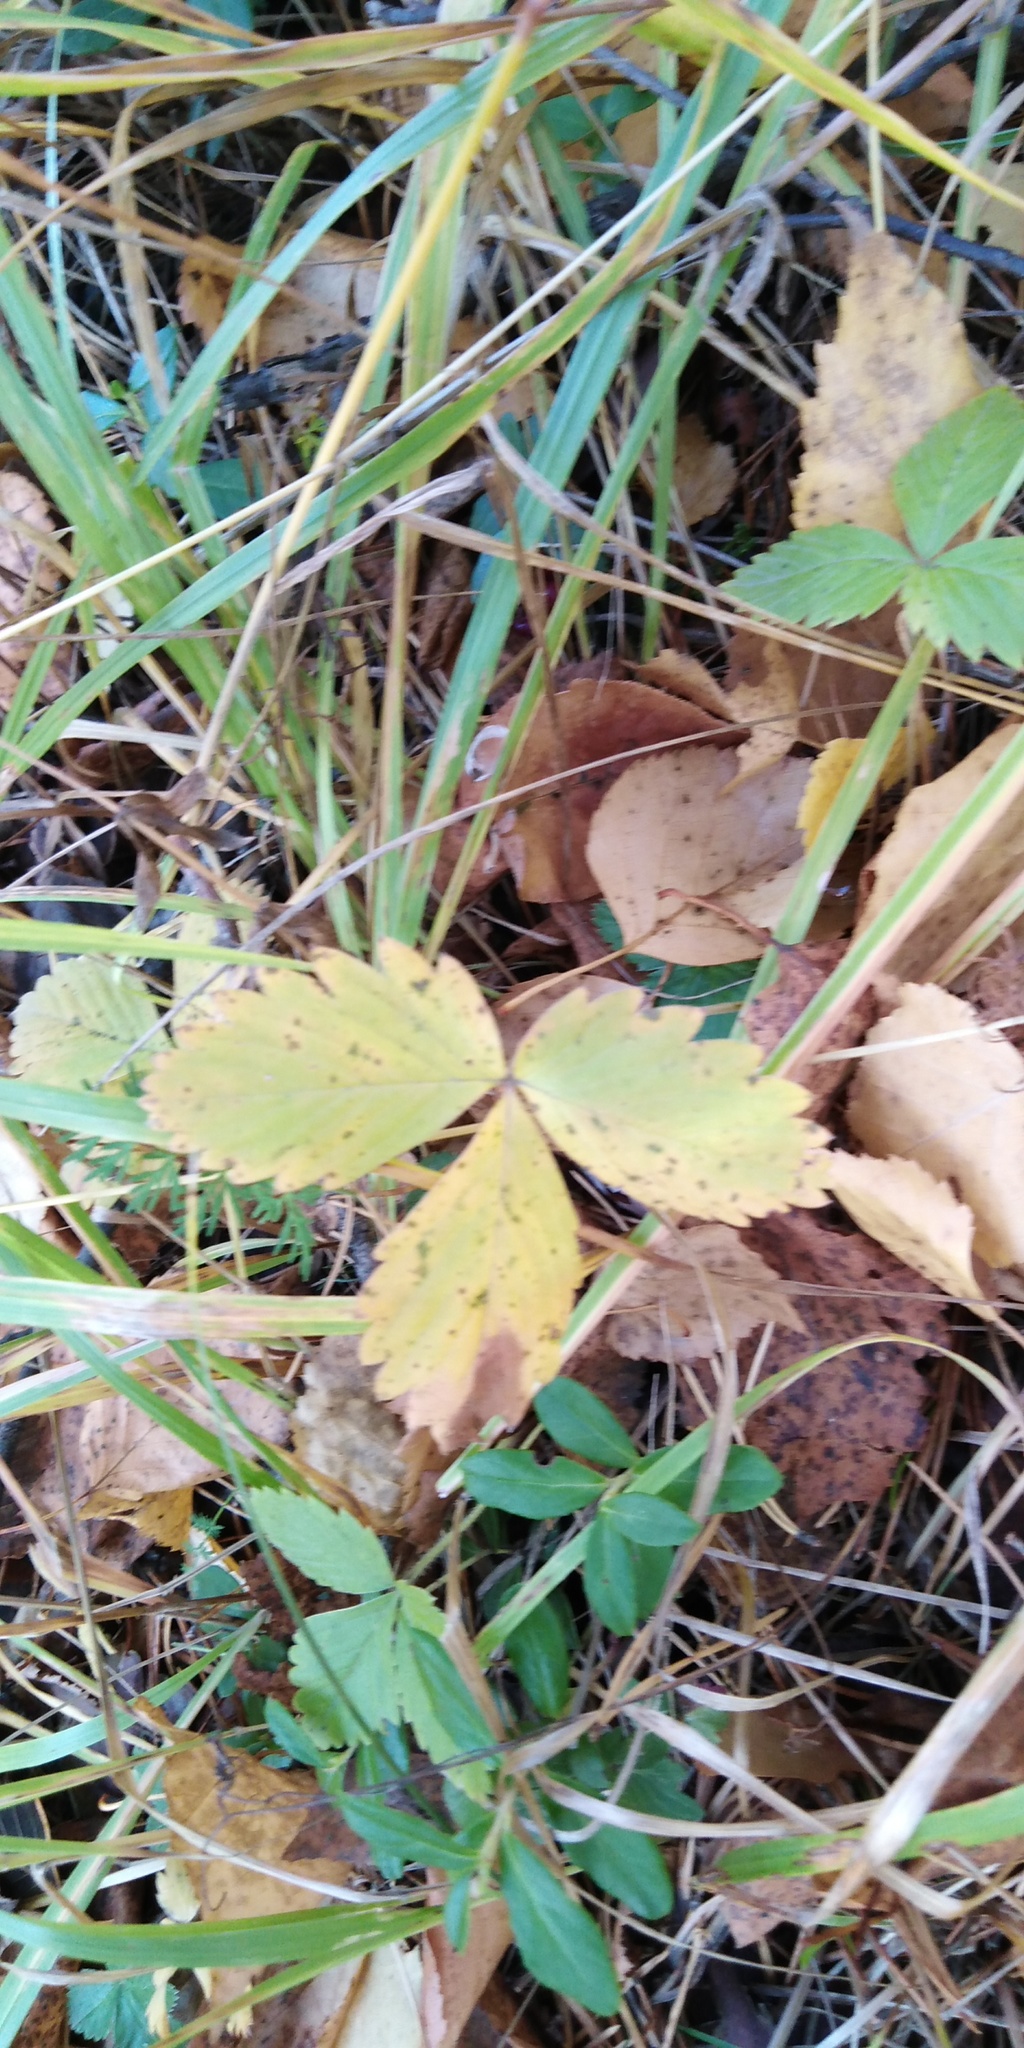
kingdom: Plantae
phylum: Tracheophyta
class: Magnoliopsida
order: Rosales
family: Rosaceae
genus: Fragaria
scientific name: Fragaria vesca
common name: Wild strawberry
